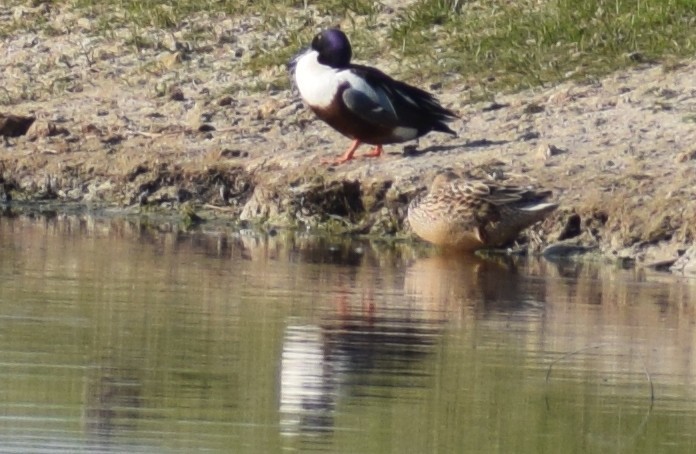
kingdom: Animalia
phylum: Chordata
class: Aves
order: Anseriformes
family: Anatidae
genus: Spatula
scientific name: Spatula clypeata
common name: Northern shoveler
